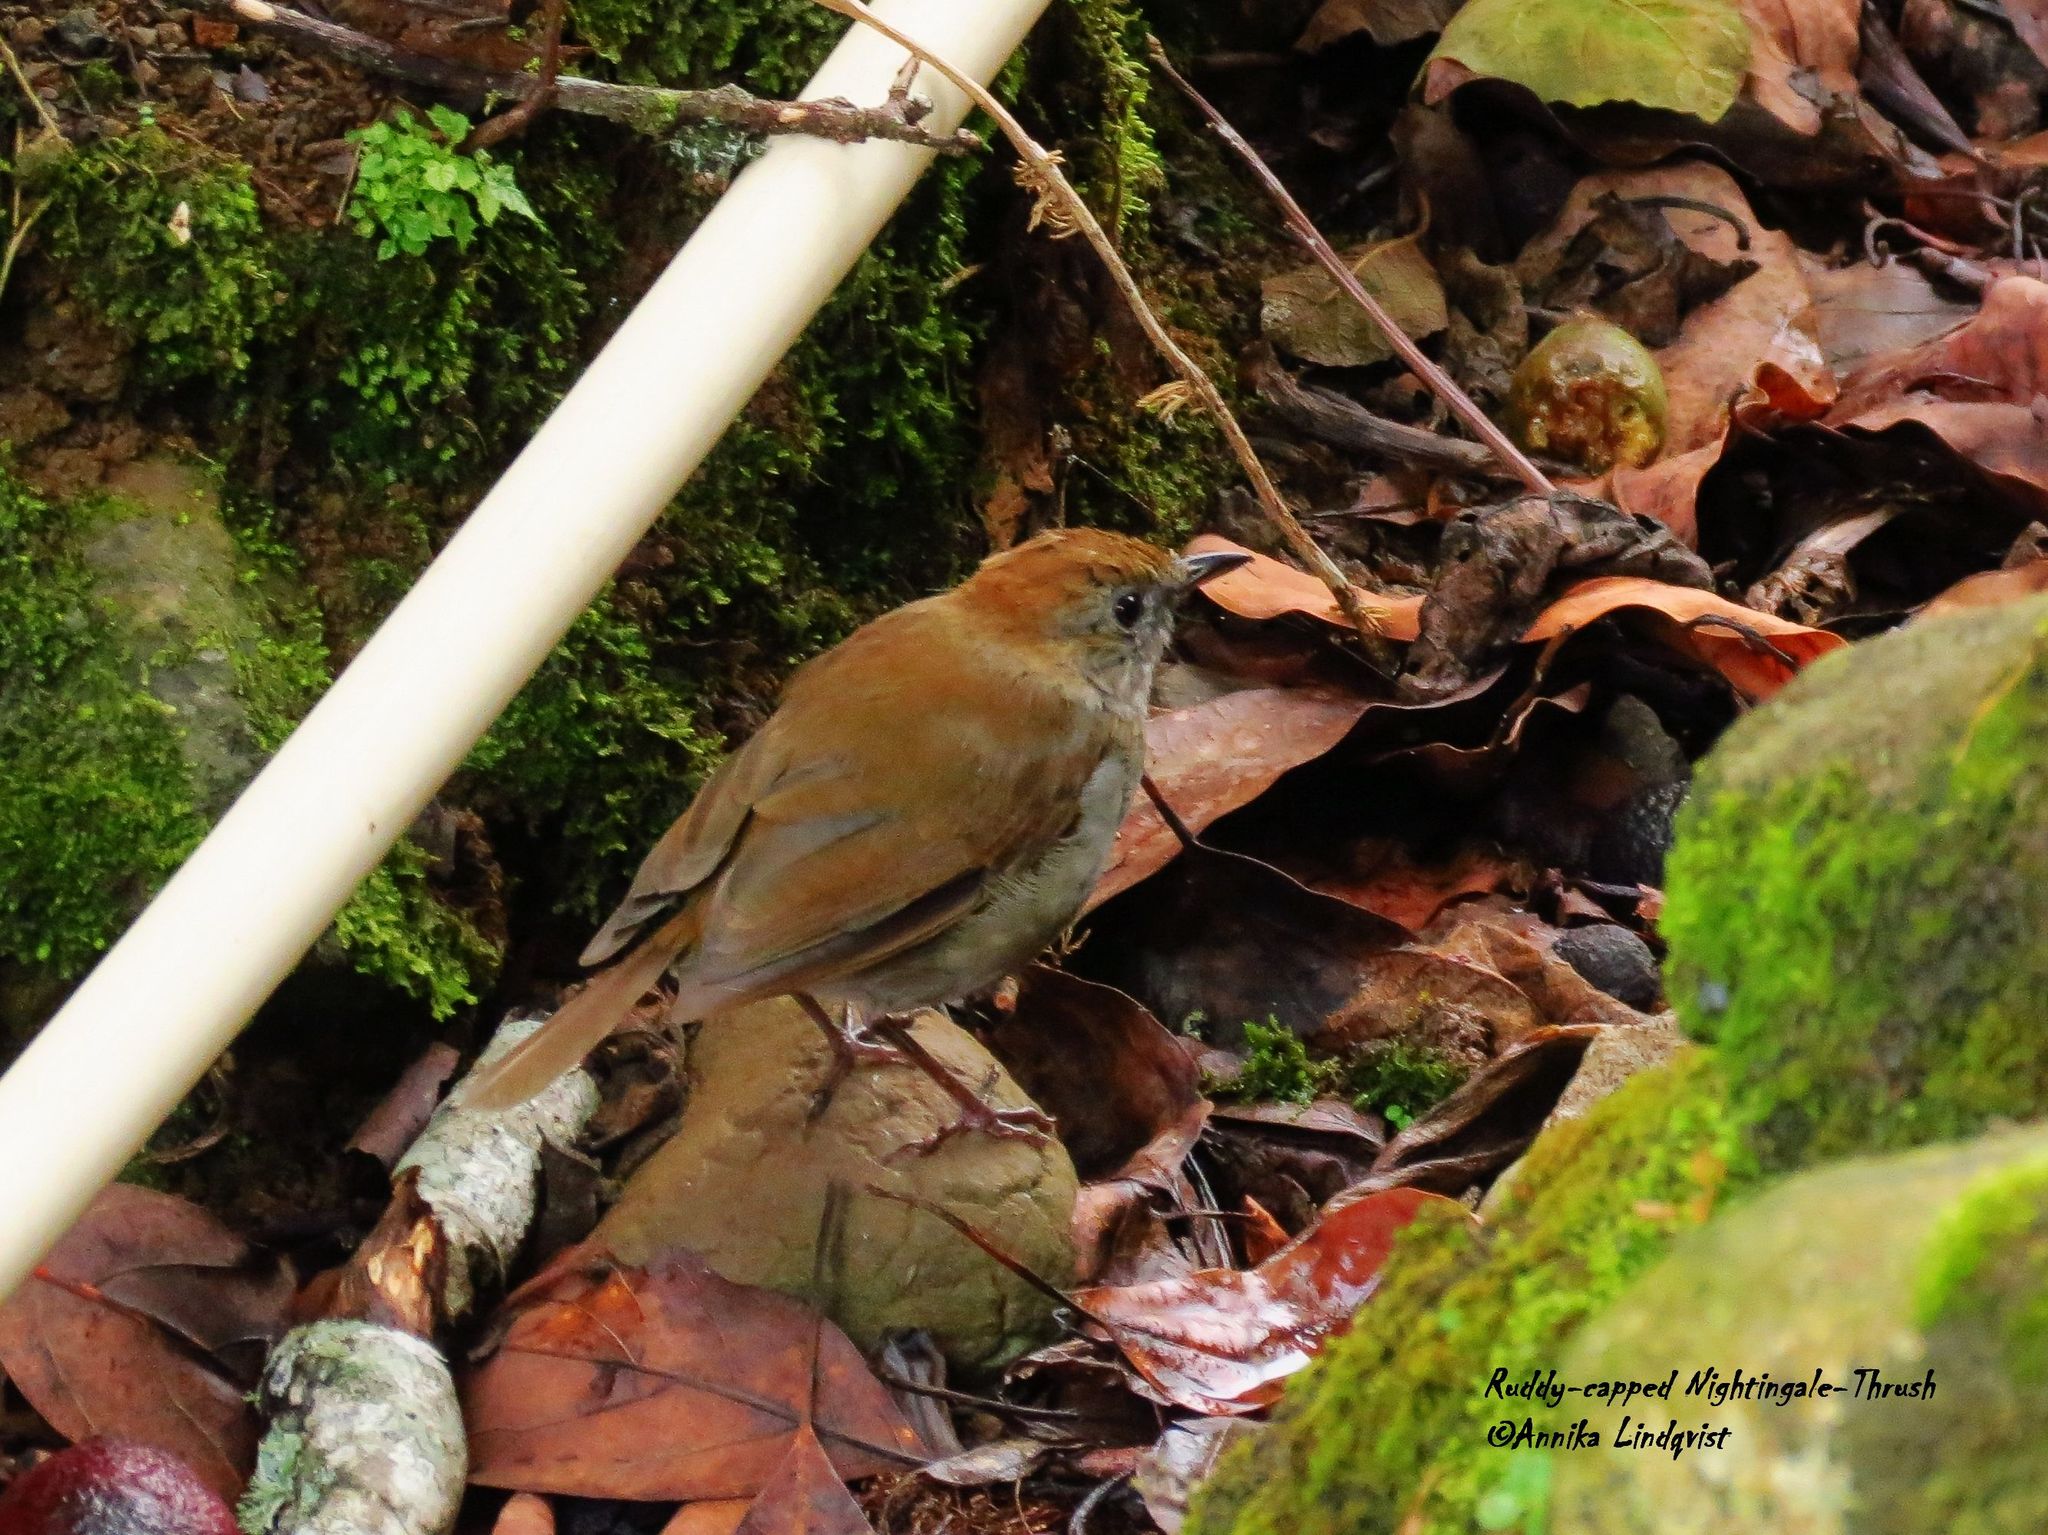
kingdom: Animalia
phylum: Chordata
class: Aves
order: Passeriformes
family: Turdidae
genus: Catharus
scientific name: Catharus frantzii
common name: Ruddy-capped nightingale-thrush
